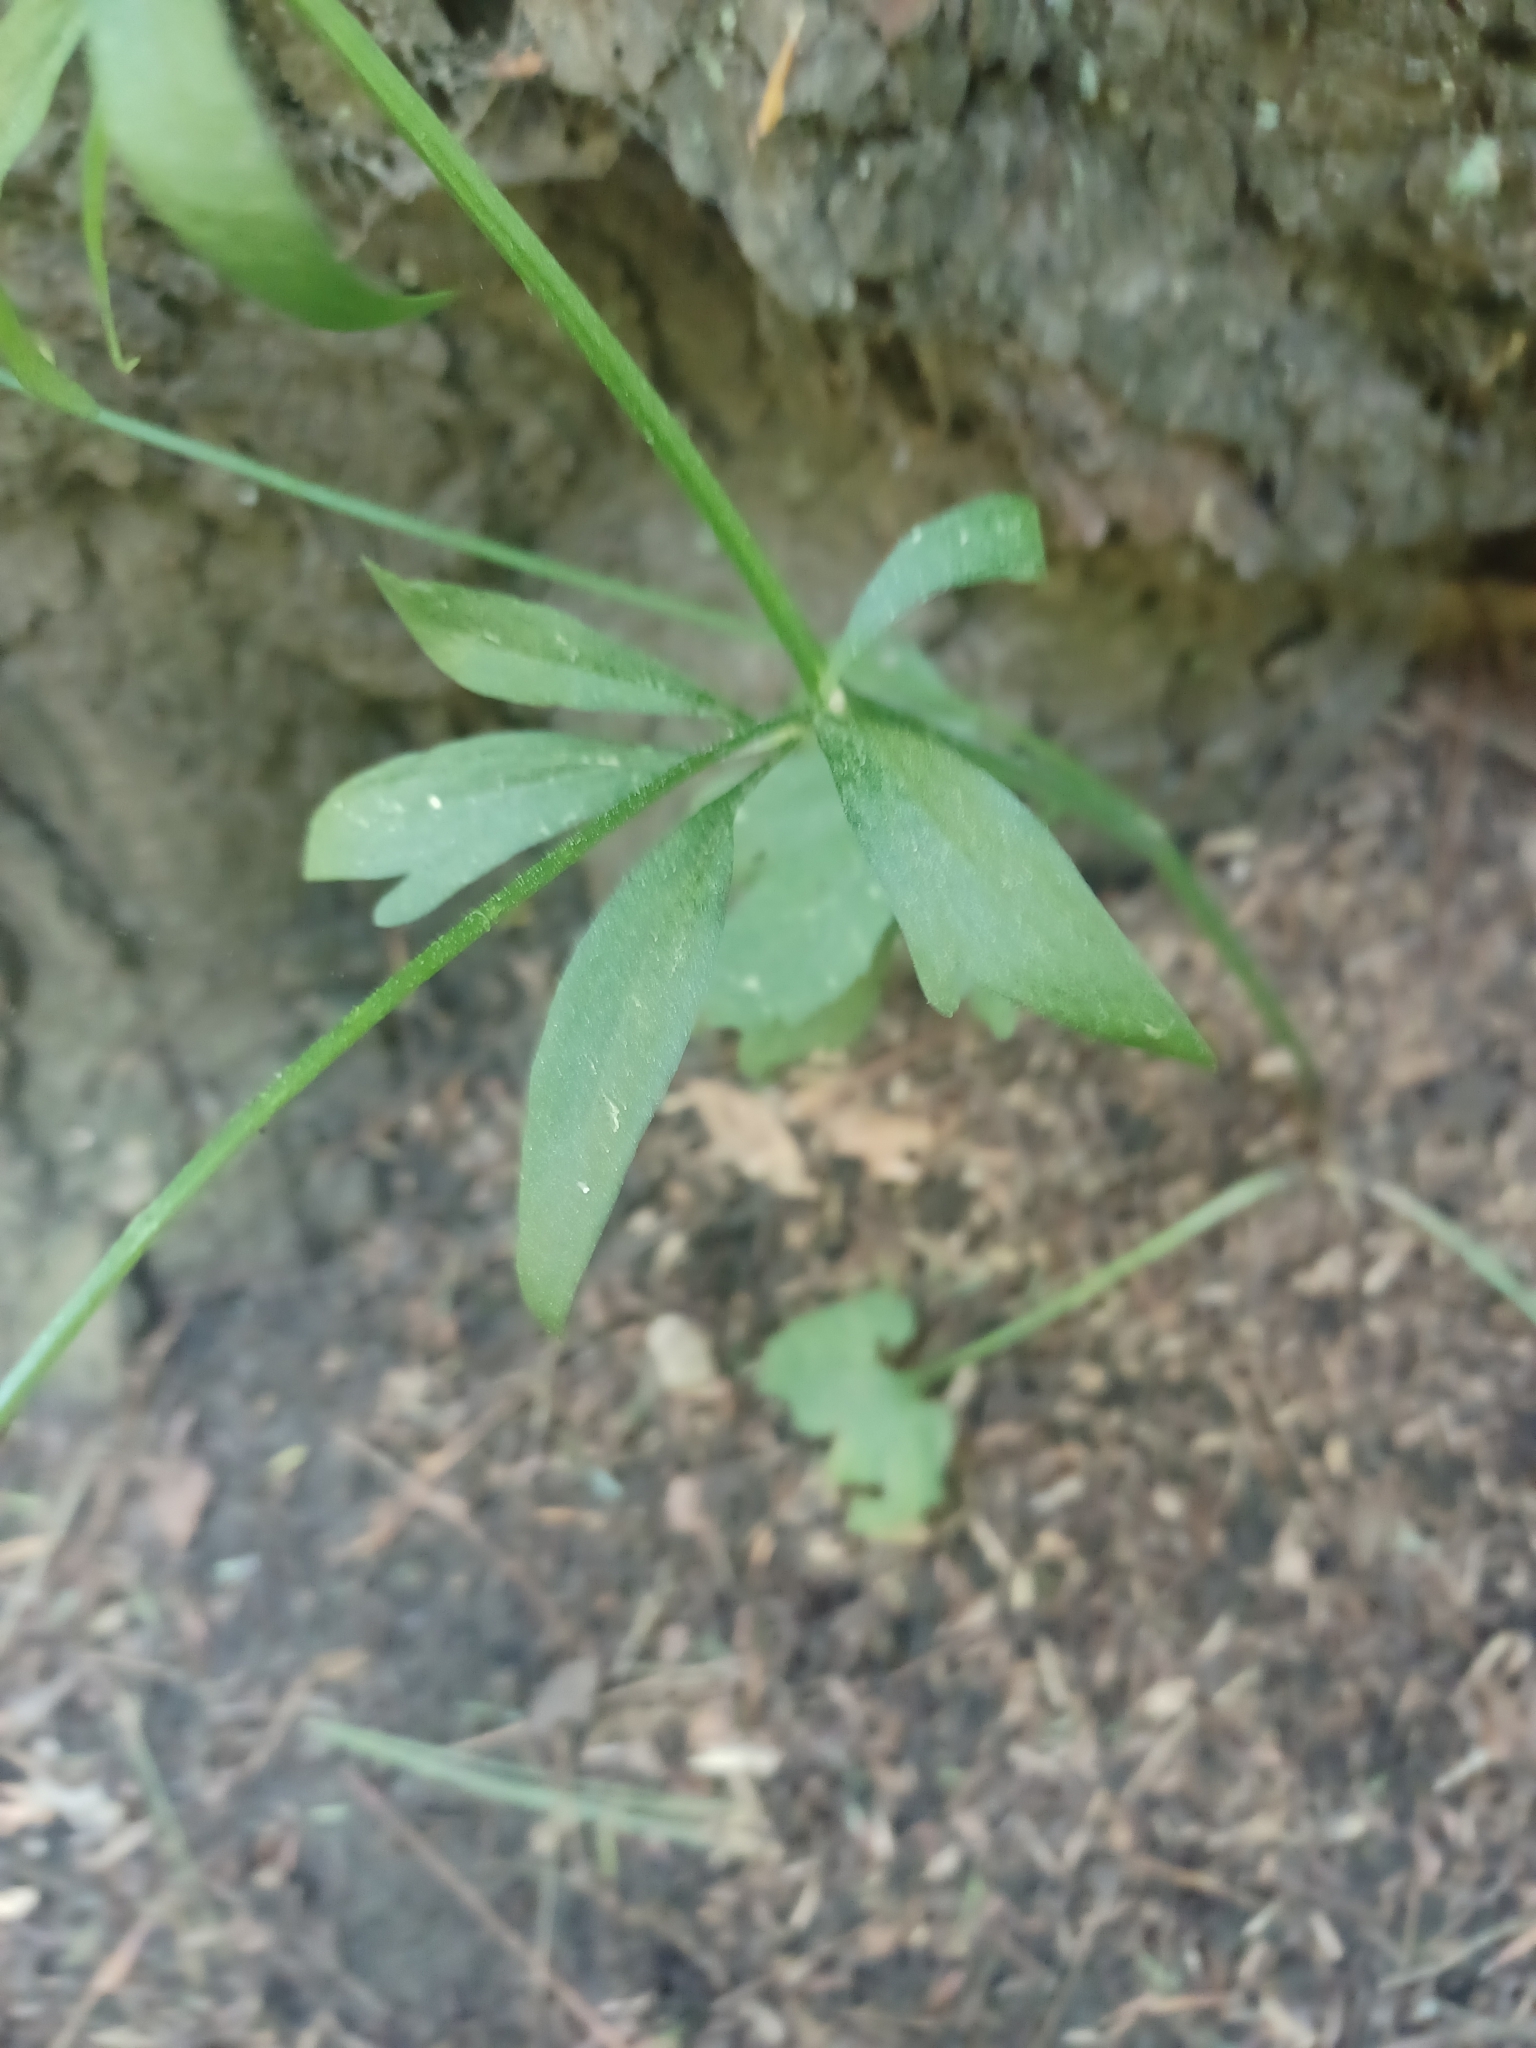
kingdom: Plantae
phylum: Tracheophyta
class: Magnoliopsida
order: Ranunculales
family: Ranunculaceae
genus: Ranunculus
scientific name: Ranunculus abortivus
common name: Early wood buttercup
